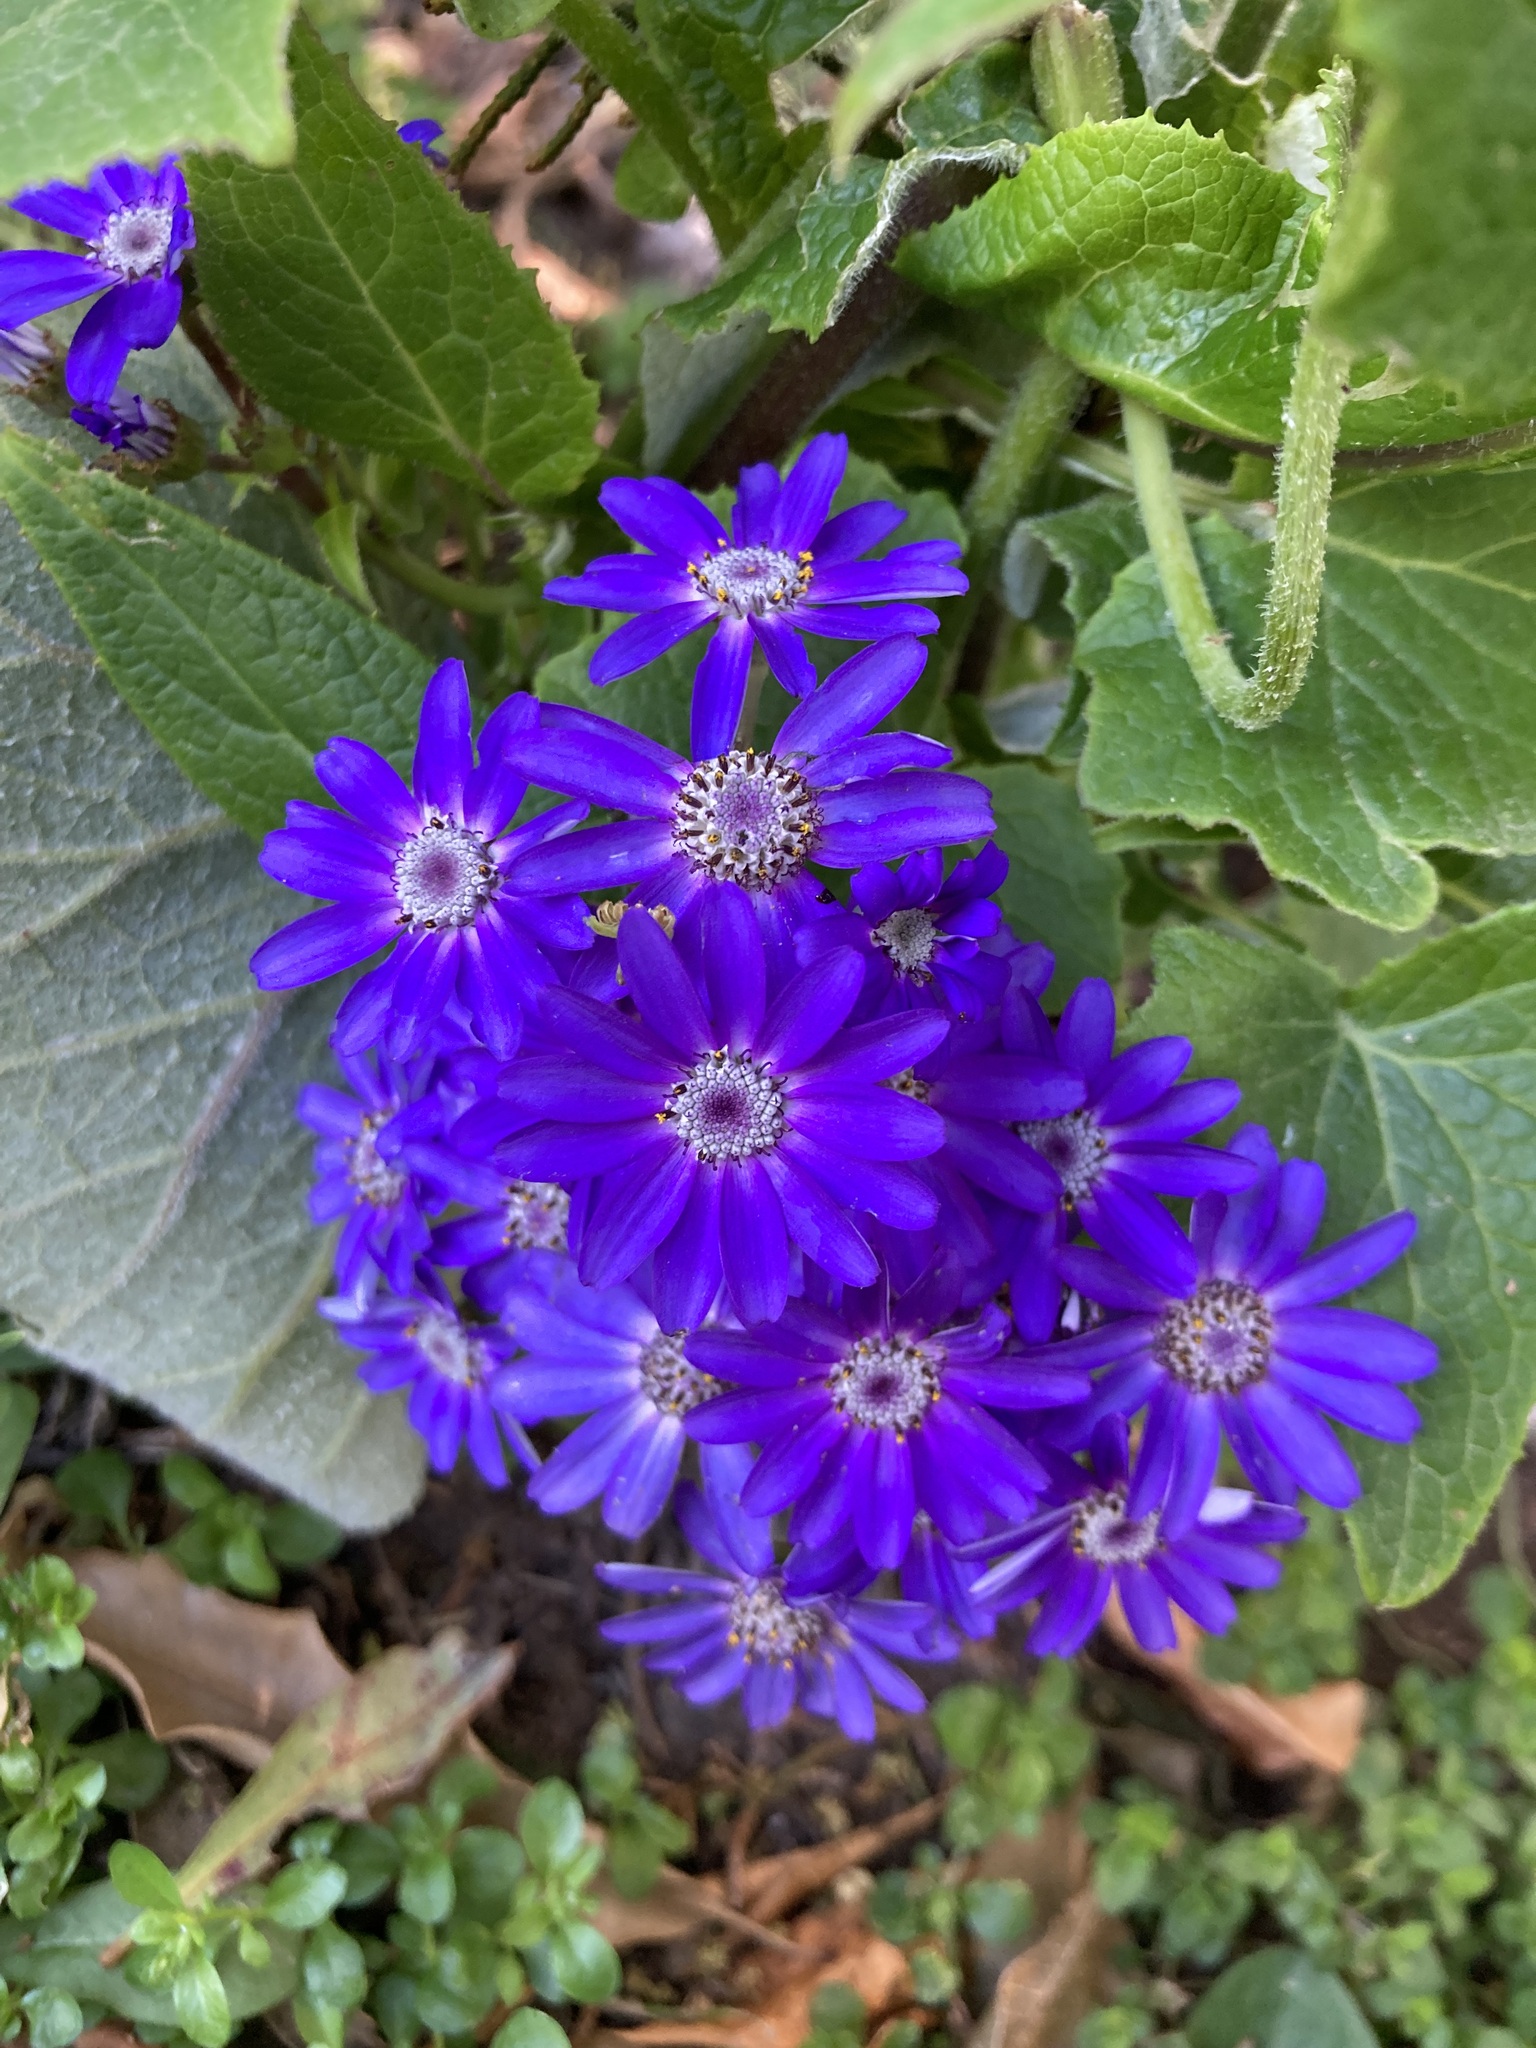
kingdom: Plantae
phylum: Tracheophyta
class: Magnoliopsida
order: Asterales
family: Asteraceae
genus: Pericallis
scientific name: Pericallis hybrida
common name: Cineraria
